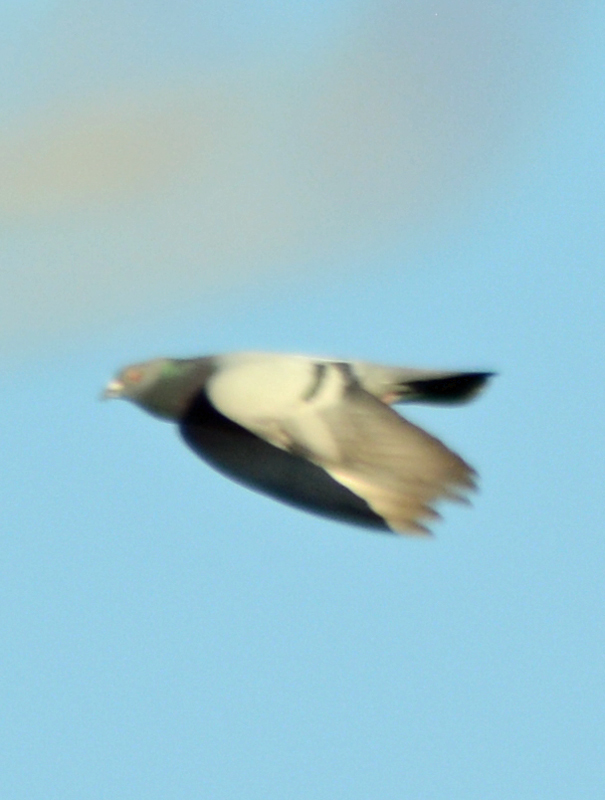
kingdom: Animalia
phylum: Chordata
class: Aves
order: Columbiformes
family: Columbidae
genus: Columba
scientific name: Columba livia
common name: Rock pigeon
